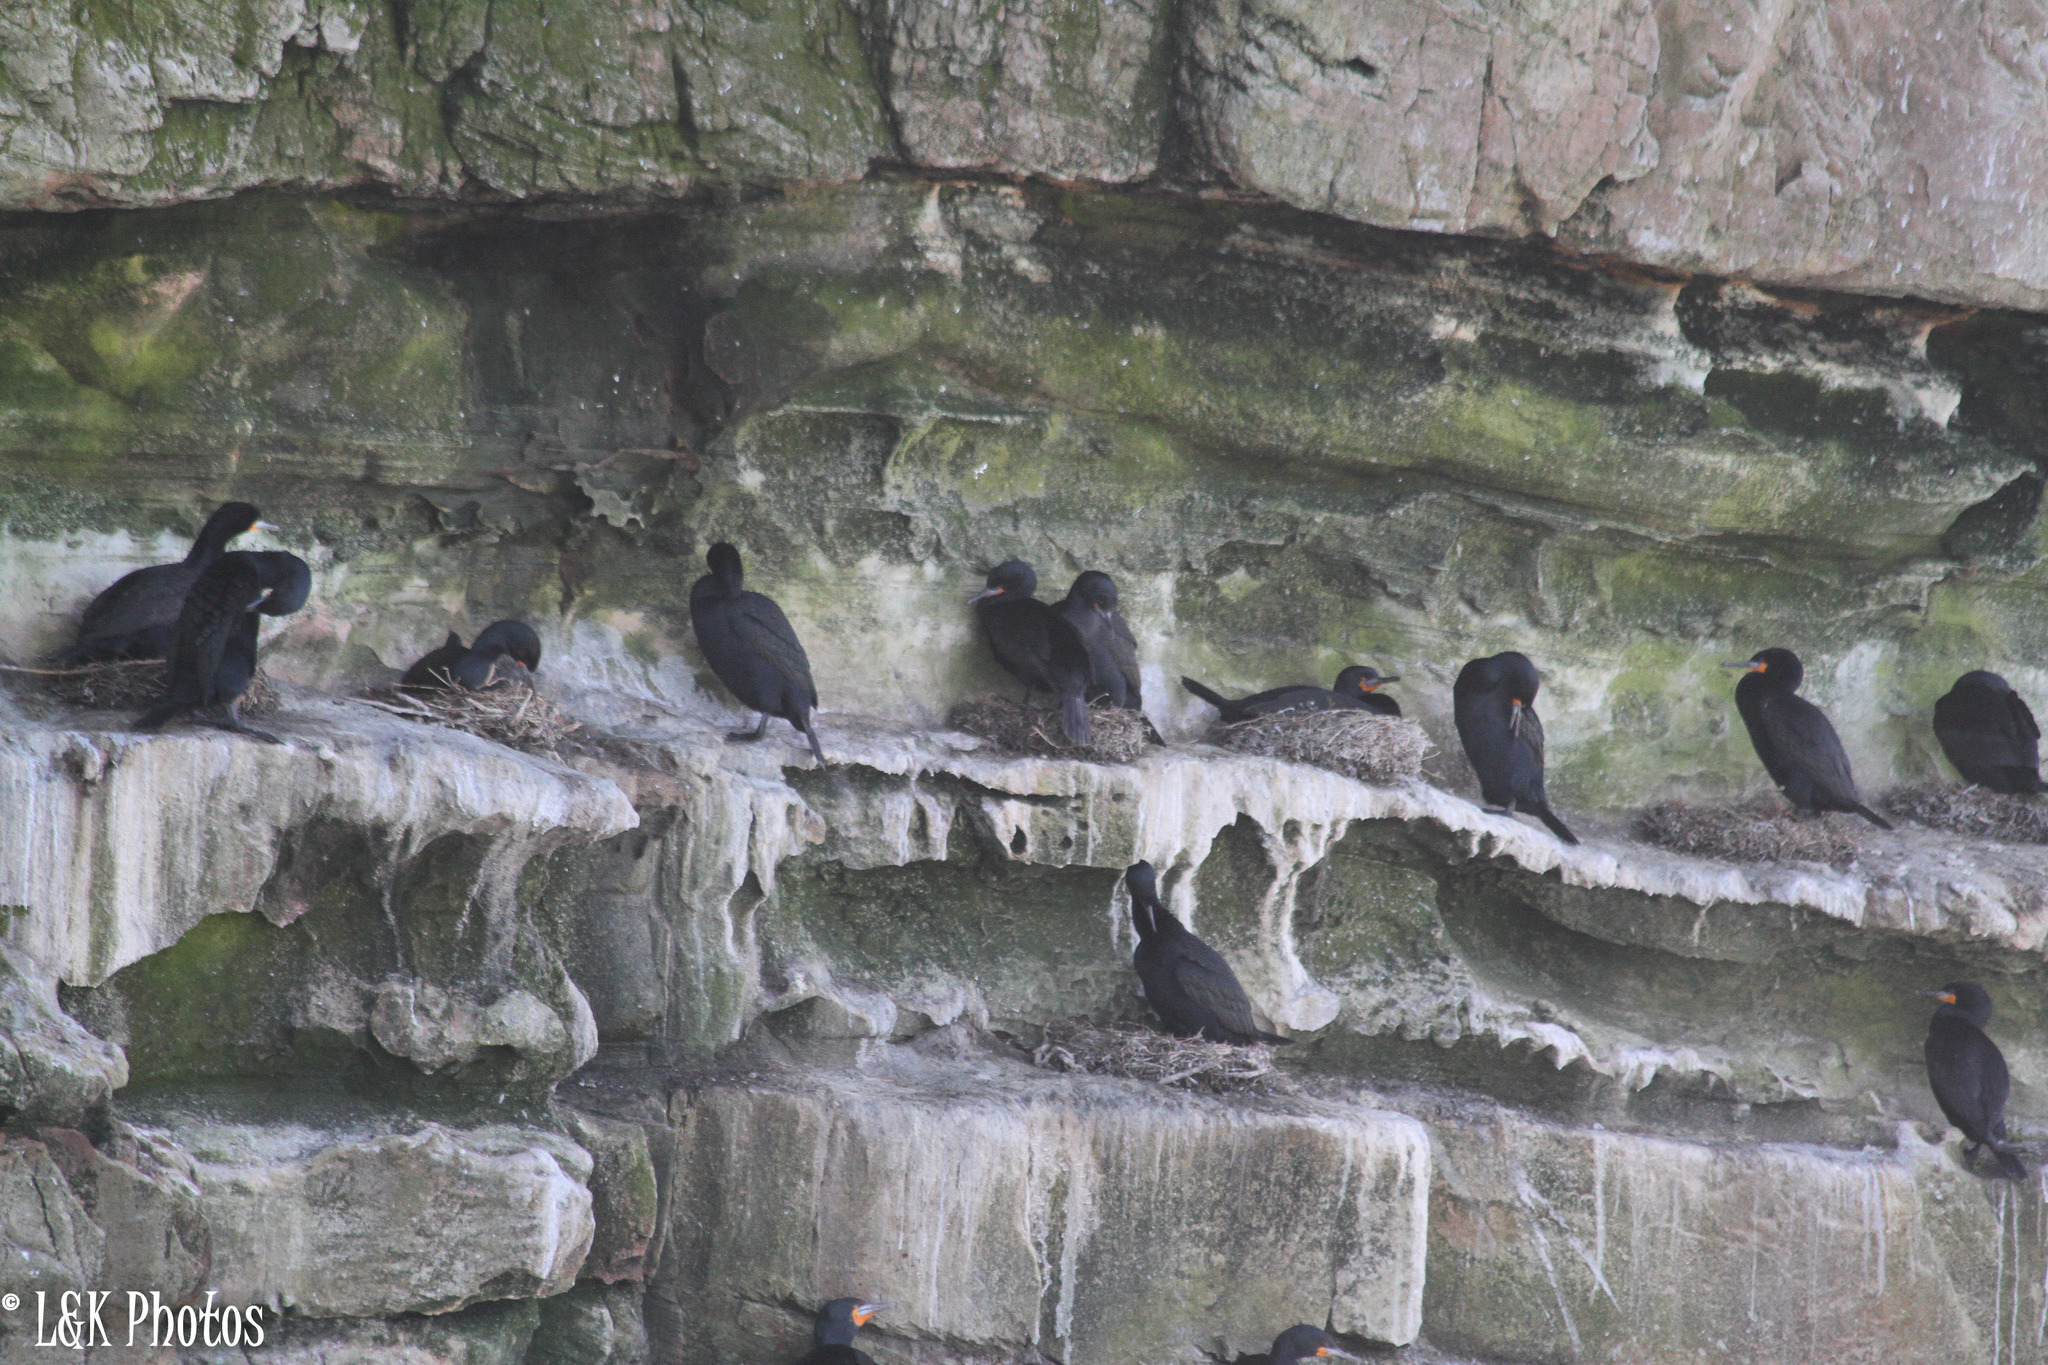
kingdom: Animalia
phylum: Chordata
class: Aves
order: Suliformes
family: Phalacrocoracidae
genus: Phalacrocorax
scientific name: Phalacrocorax capensis
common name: Cape cormorant
